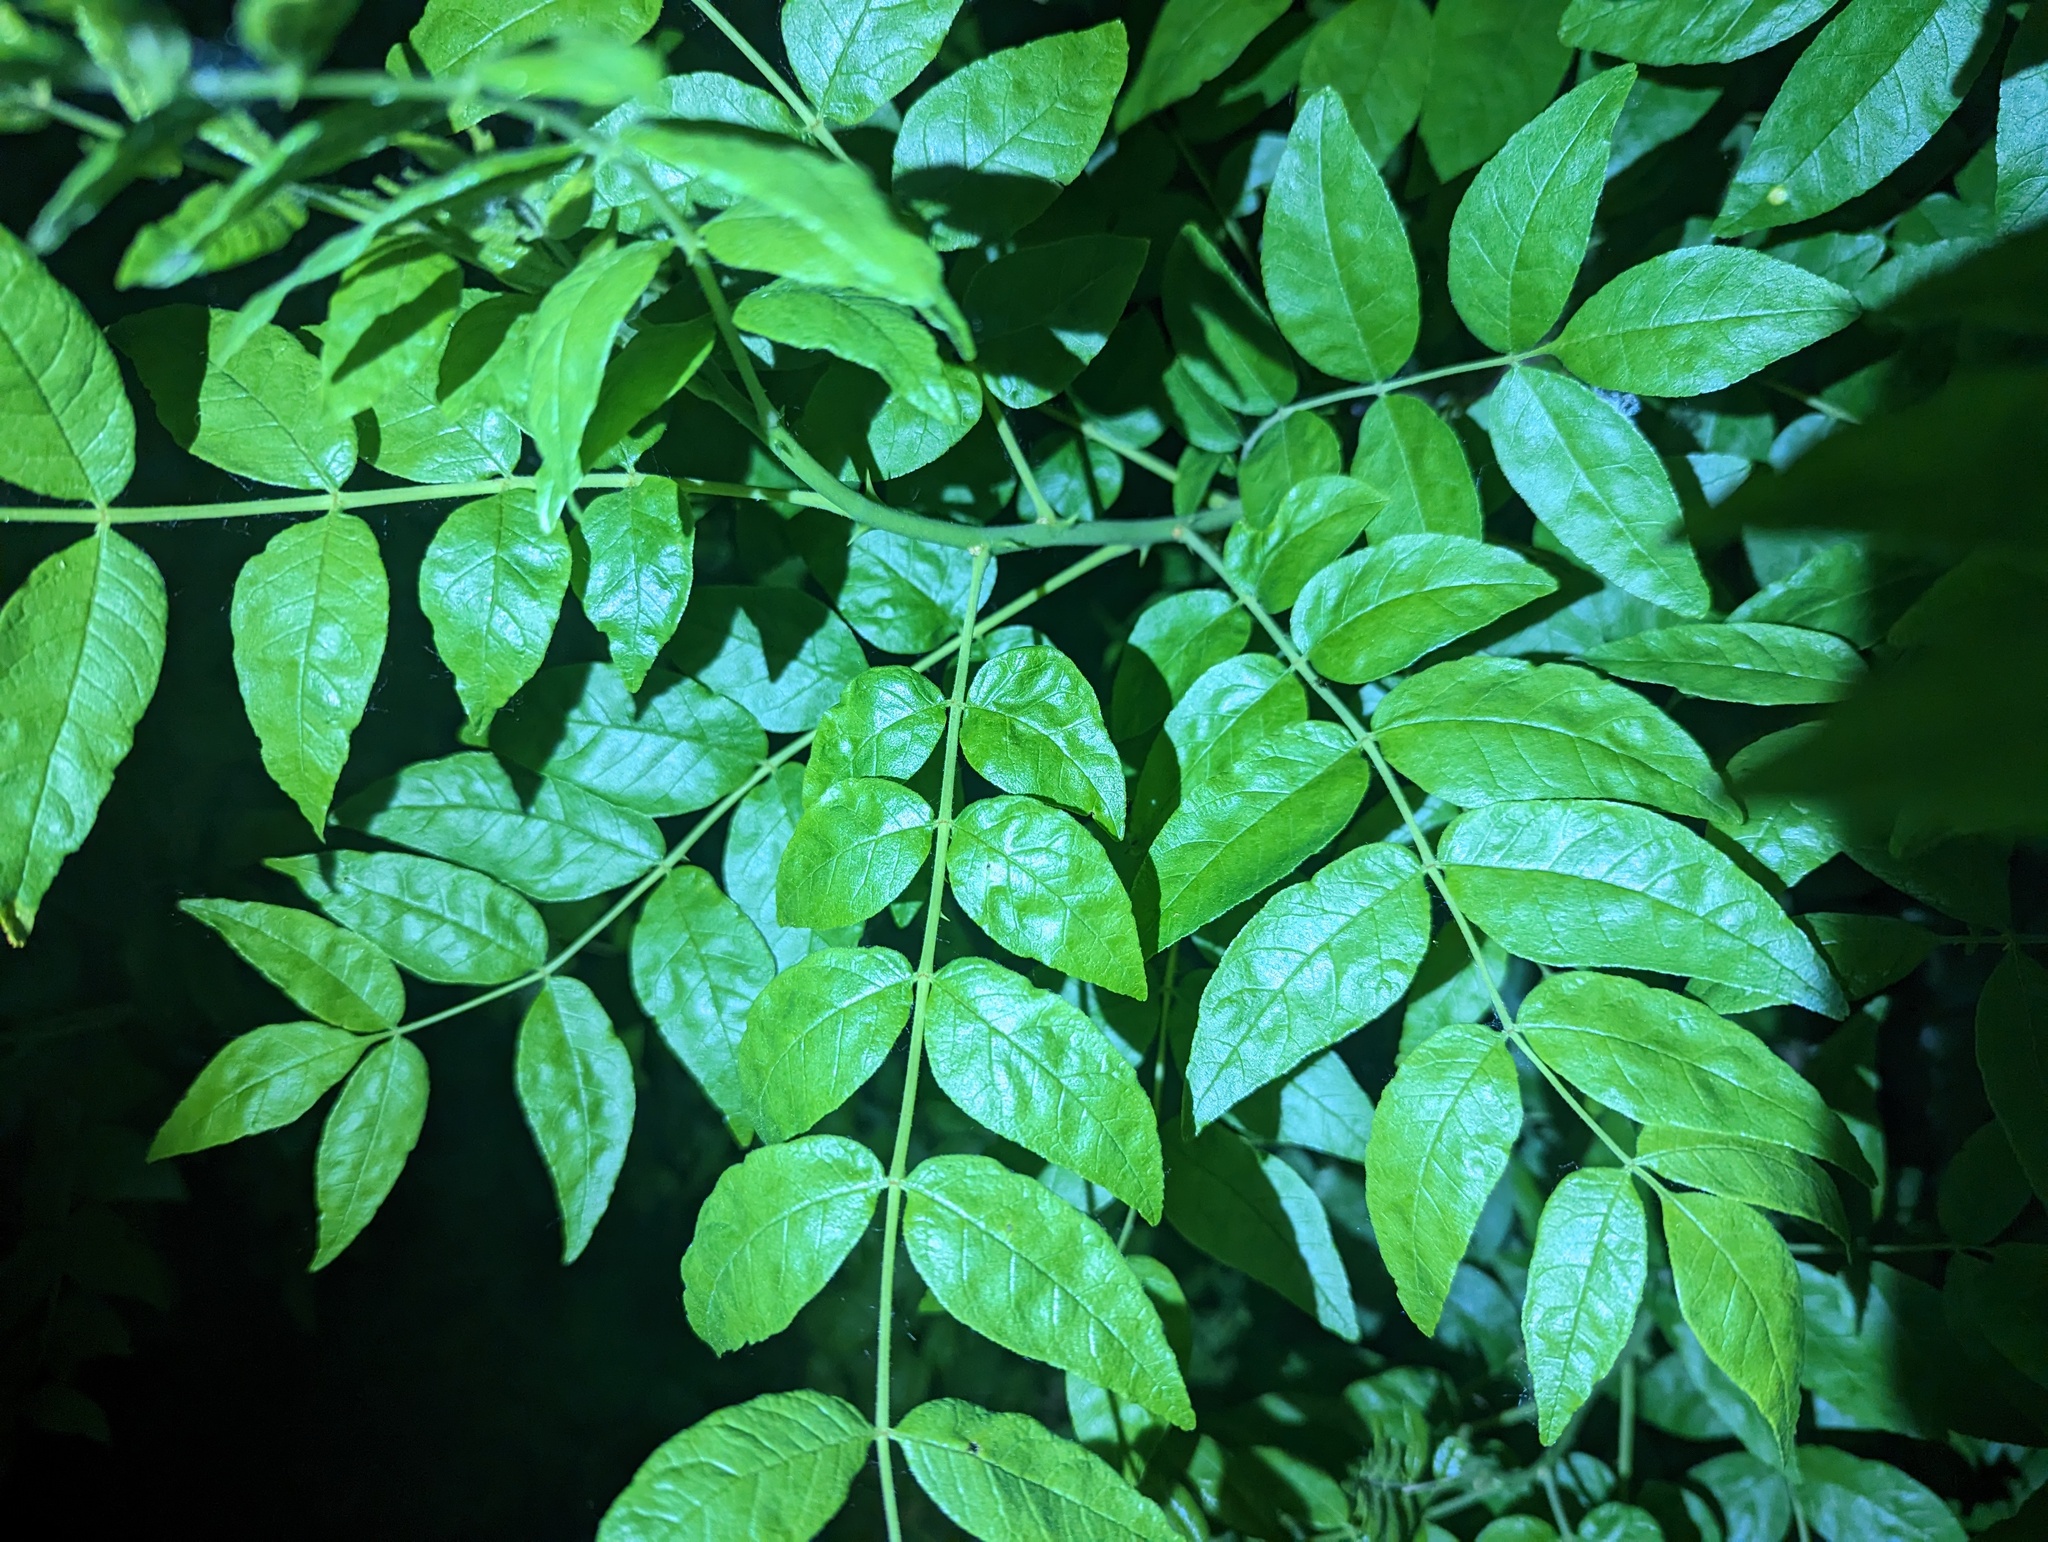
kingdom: Plantae
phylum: Tracheophyta
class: Magnoliopsida
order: Sapindales
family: Rutaceae
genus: Zanthoxylum
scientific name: Zanthoxylum americanum
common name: Northern prickly-ash
